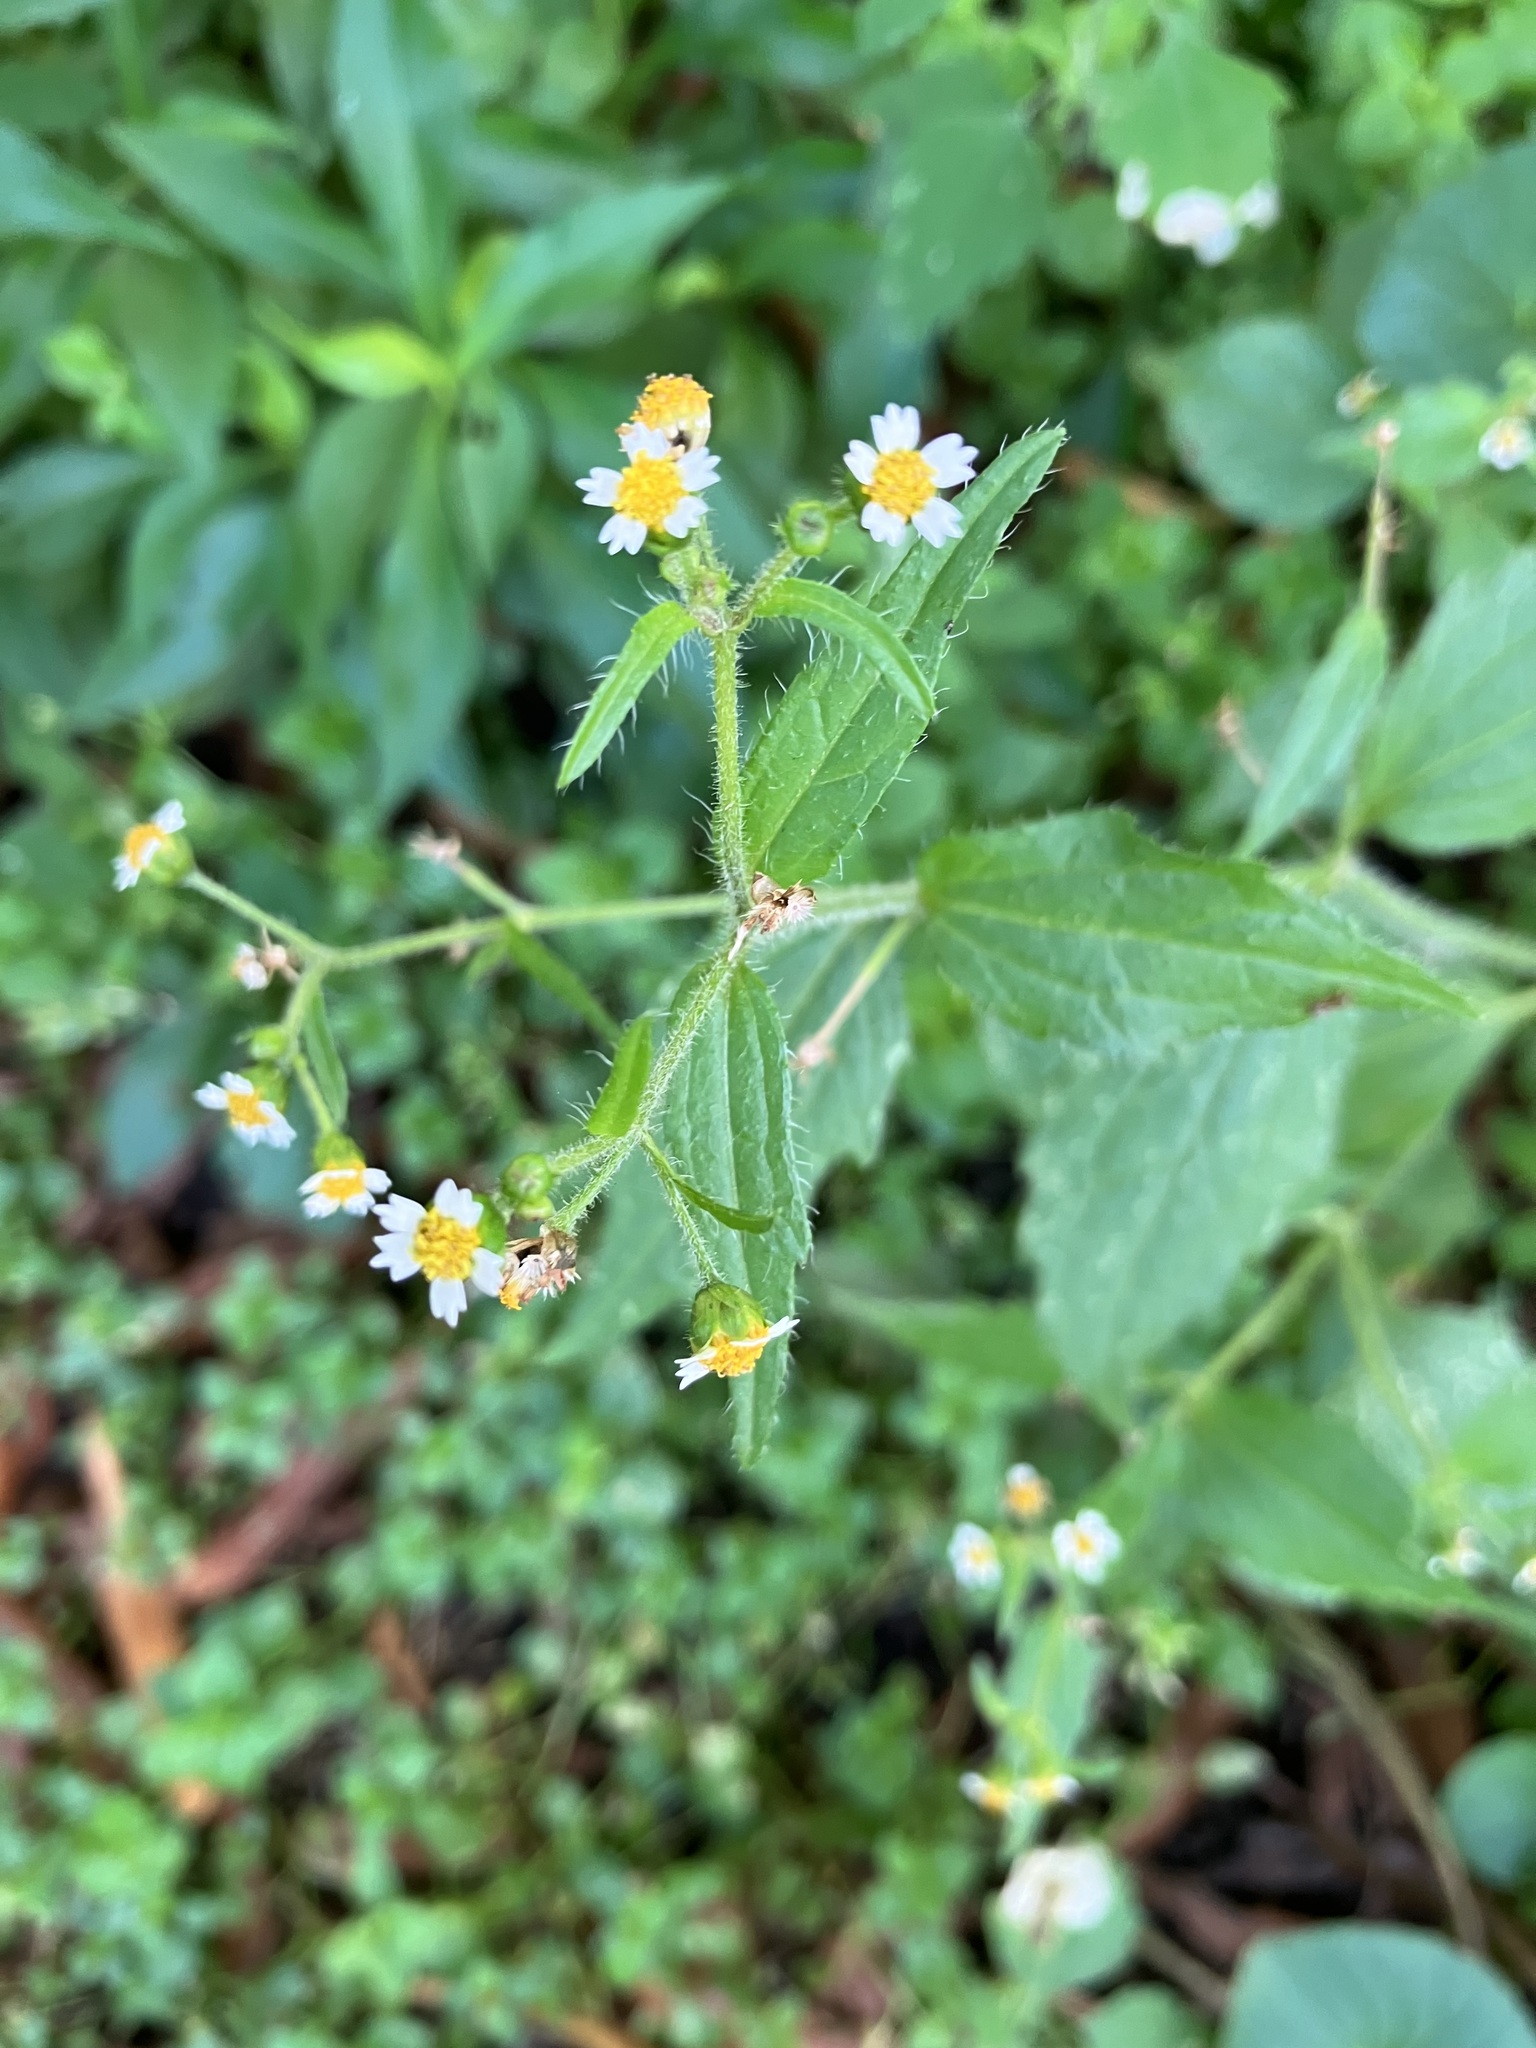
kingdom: Plantae
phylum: Tracheophyta
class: Magnoliopsida
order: Asterales
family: Asteraceae
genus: Galinsoga
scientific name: Galinsoga quadriradiata
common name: Shaggy soldier
